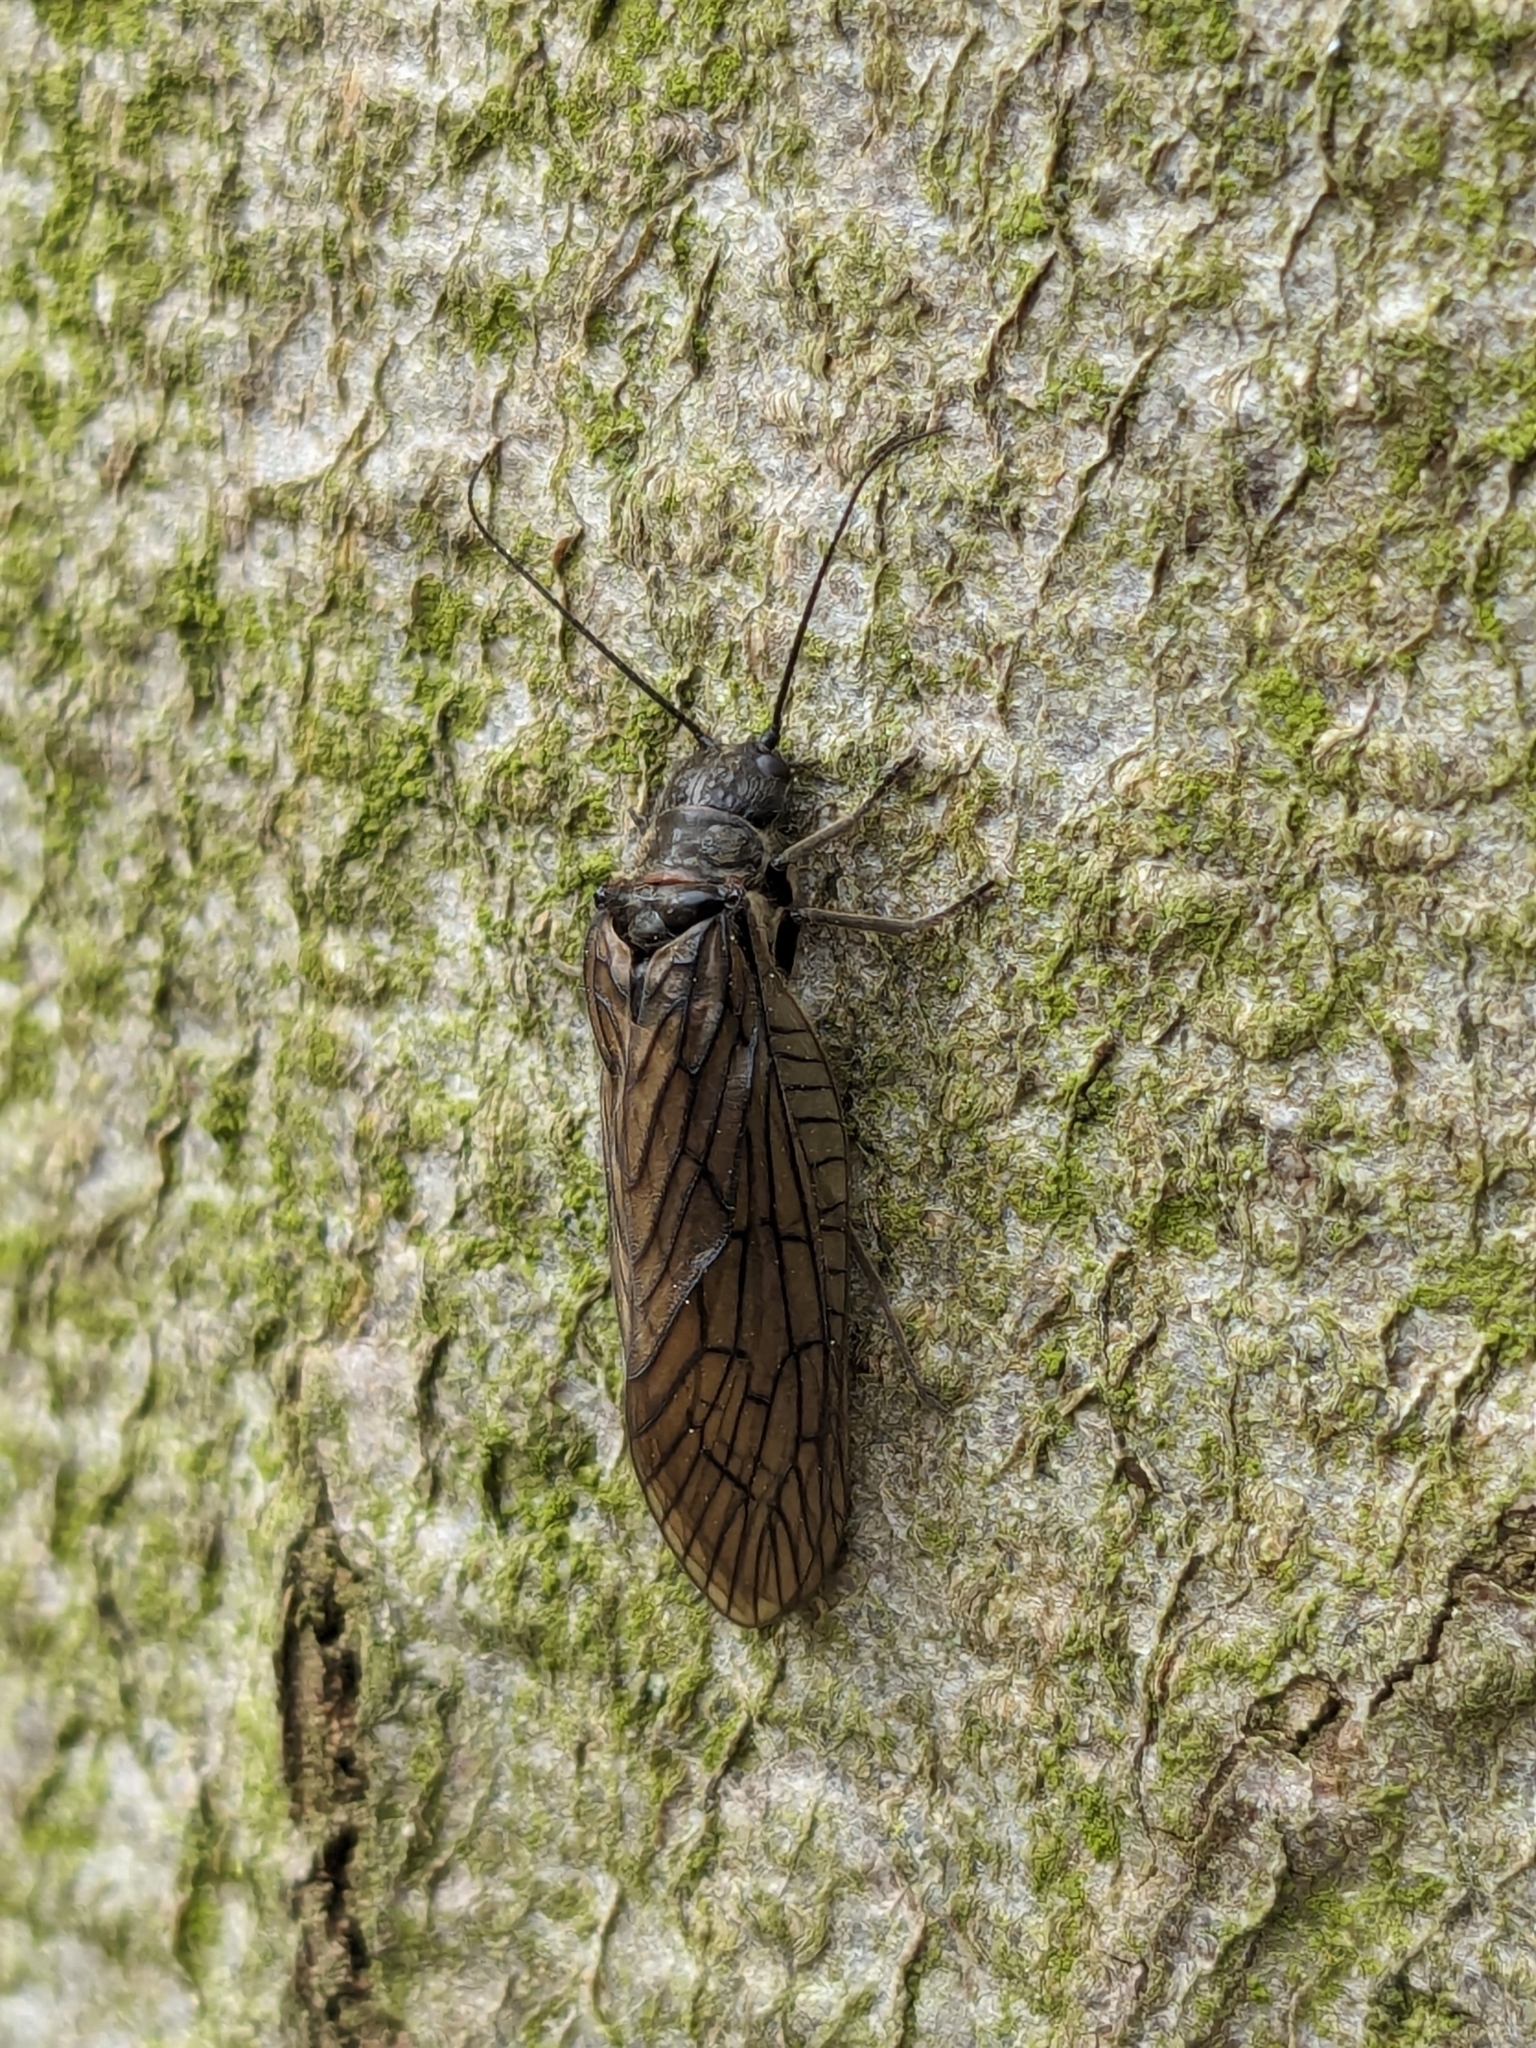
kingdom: Animalia
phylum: Arthropoda
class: Insecta
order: Megaloptera
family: Sialidae
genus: Sialis
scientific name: Sialis
